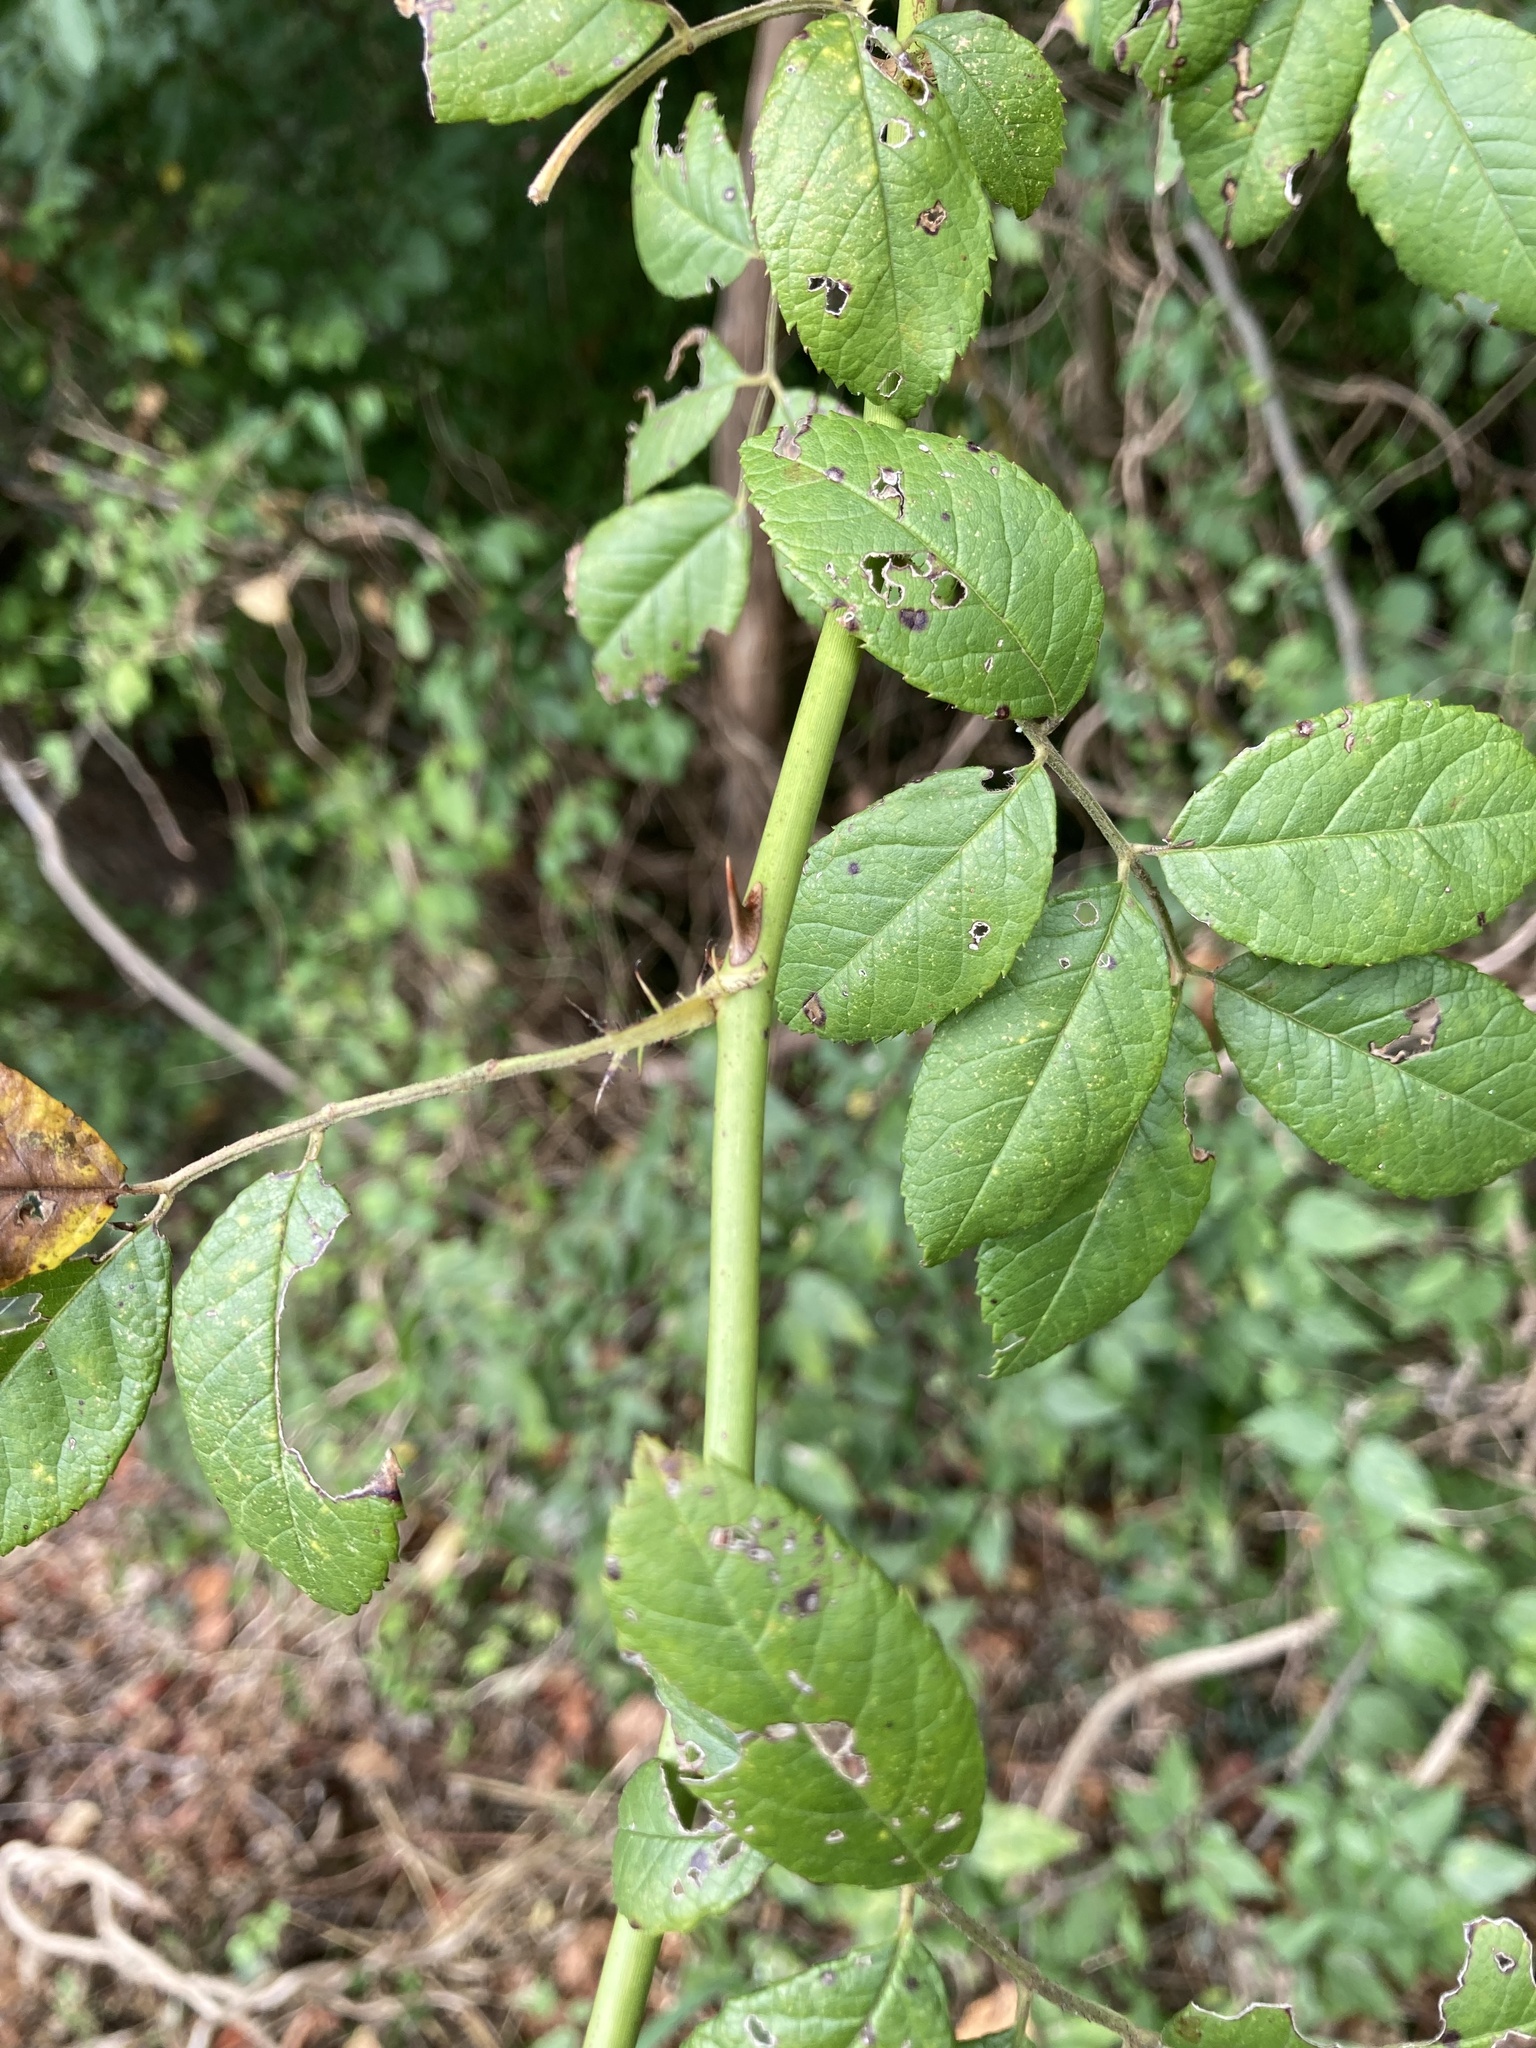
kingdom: Plantae
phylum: Tracheophyta
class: Magnoliopsida
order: Rosales
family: Rosaceae
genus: Rosa
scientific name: Rosa multiflora
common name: Multiflora rose
